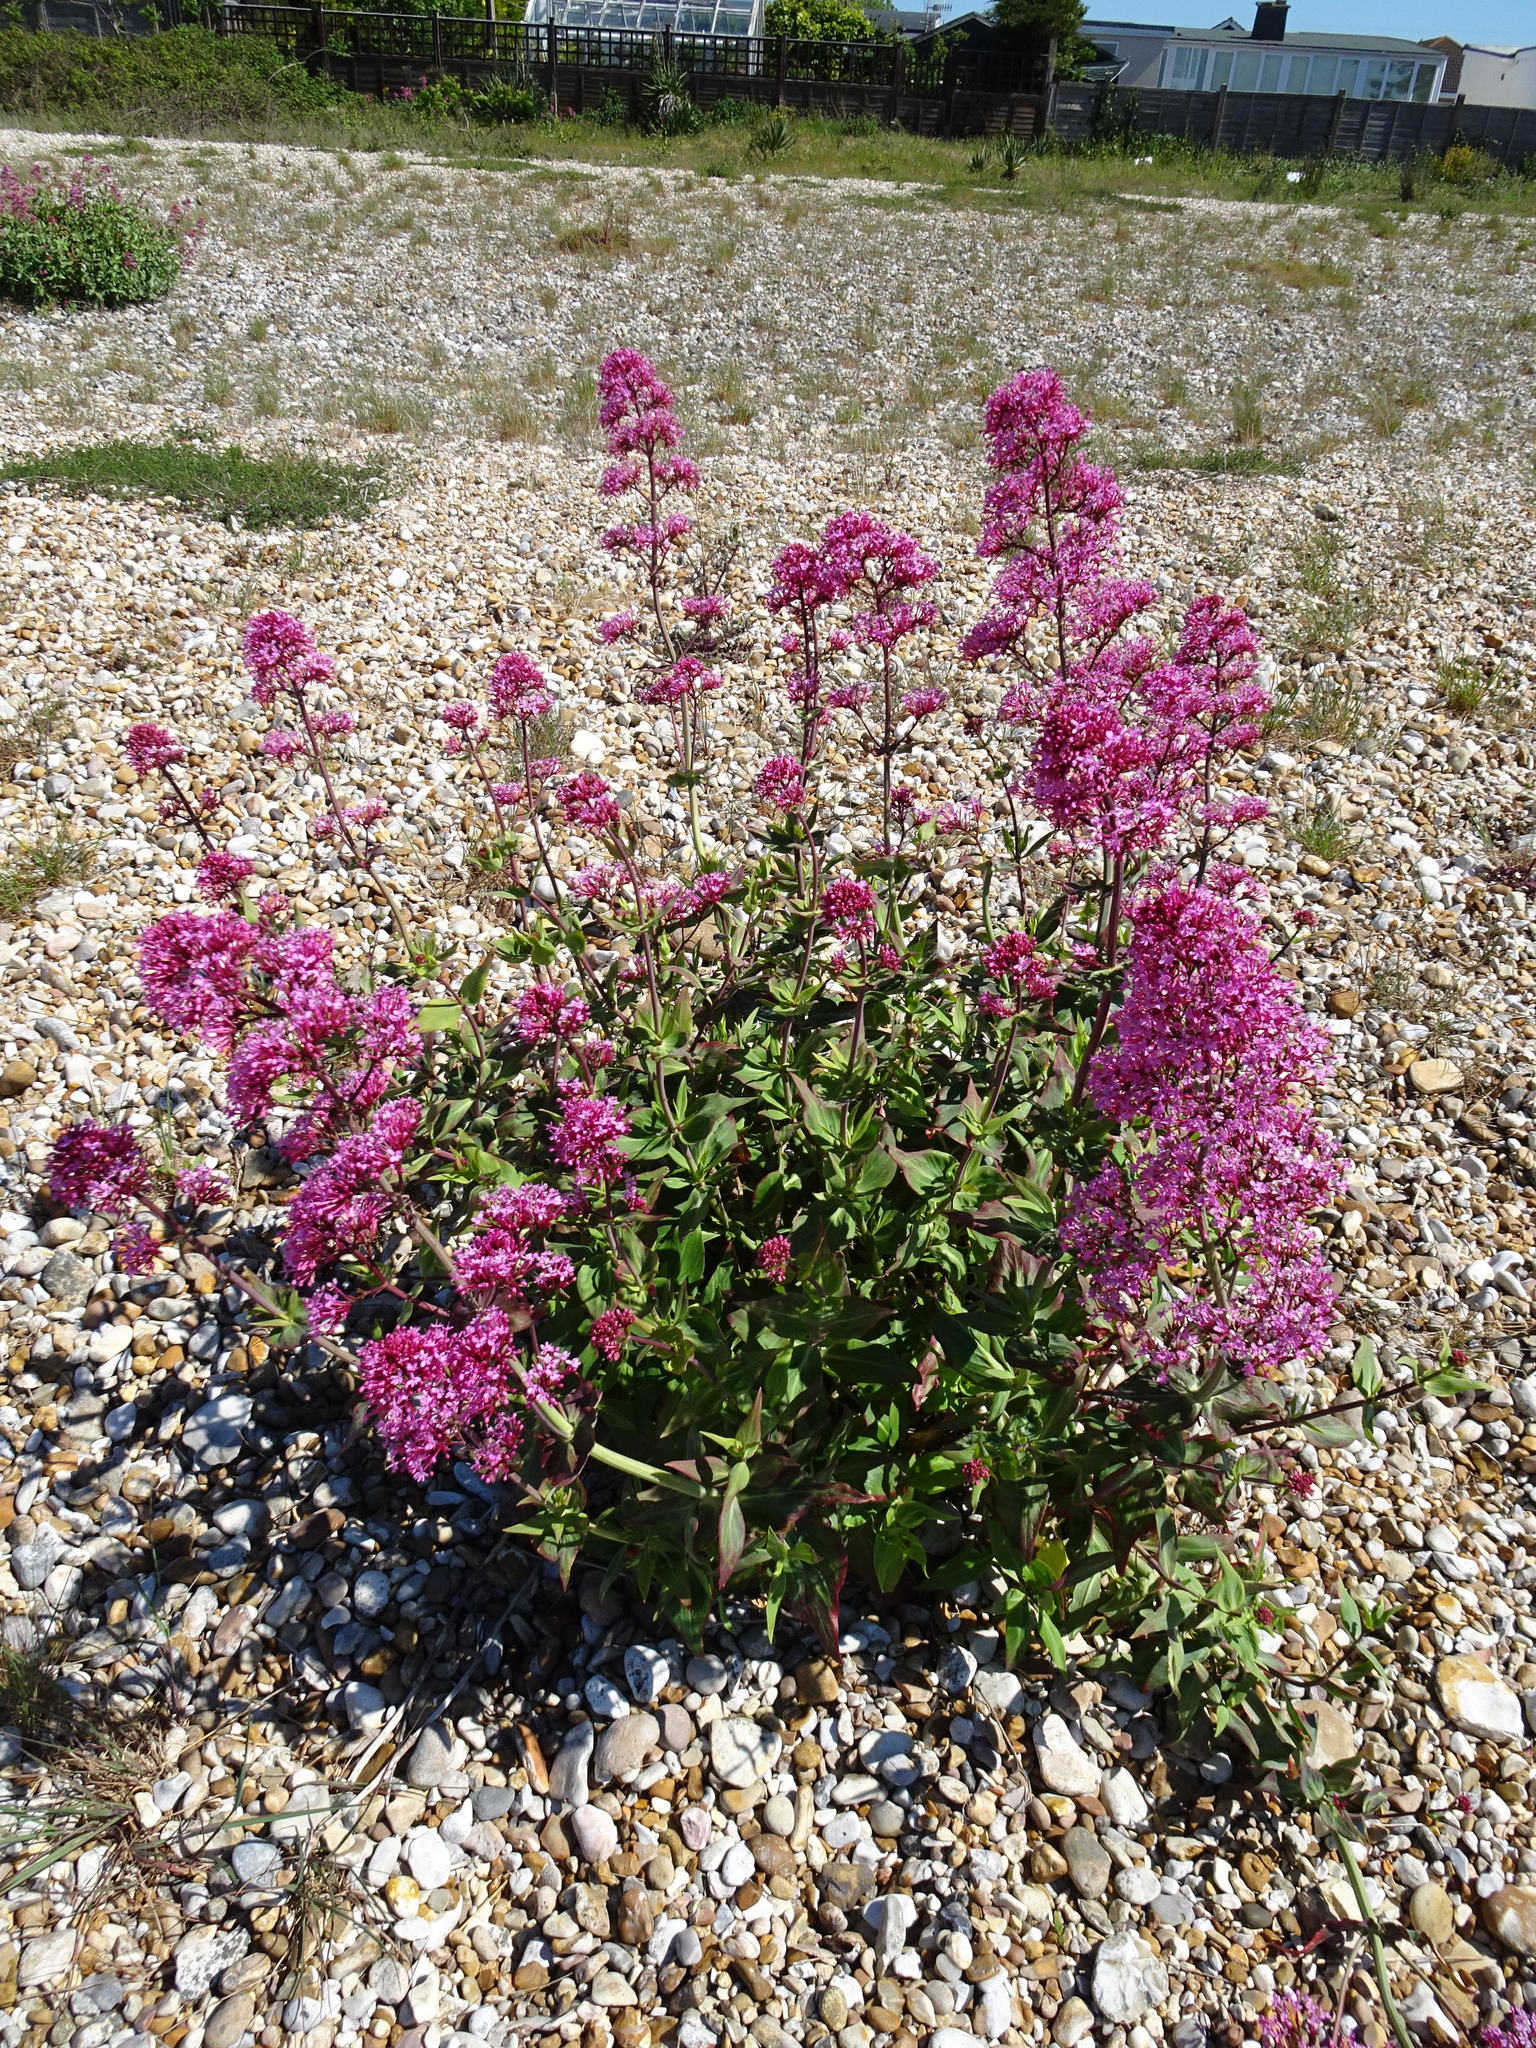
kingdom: Plantae
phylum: Tracheophyta
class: Magnoliopsida
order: Dipsacales
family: Caprifoliaceae
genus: Centranthus
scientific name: Centranthus ruber
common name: Red valerian
